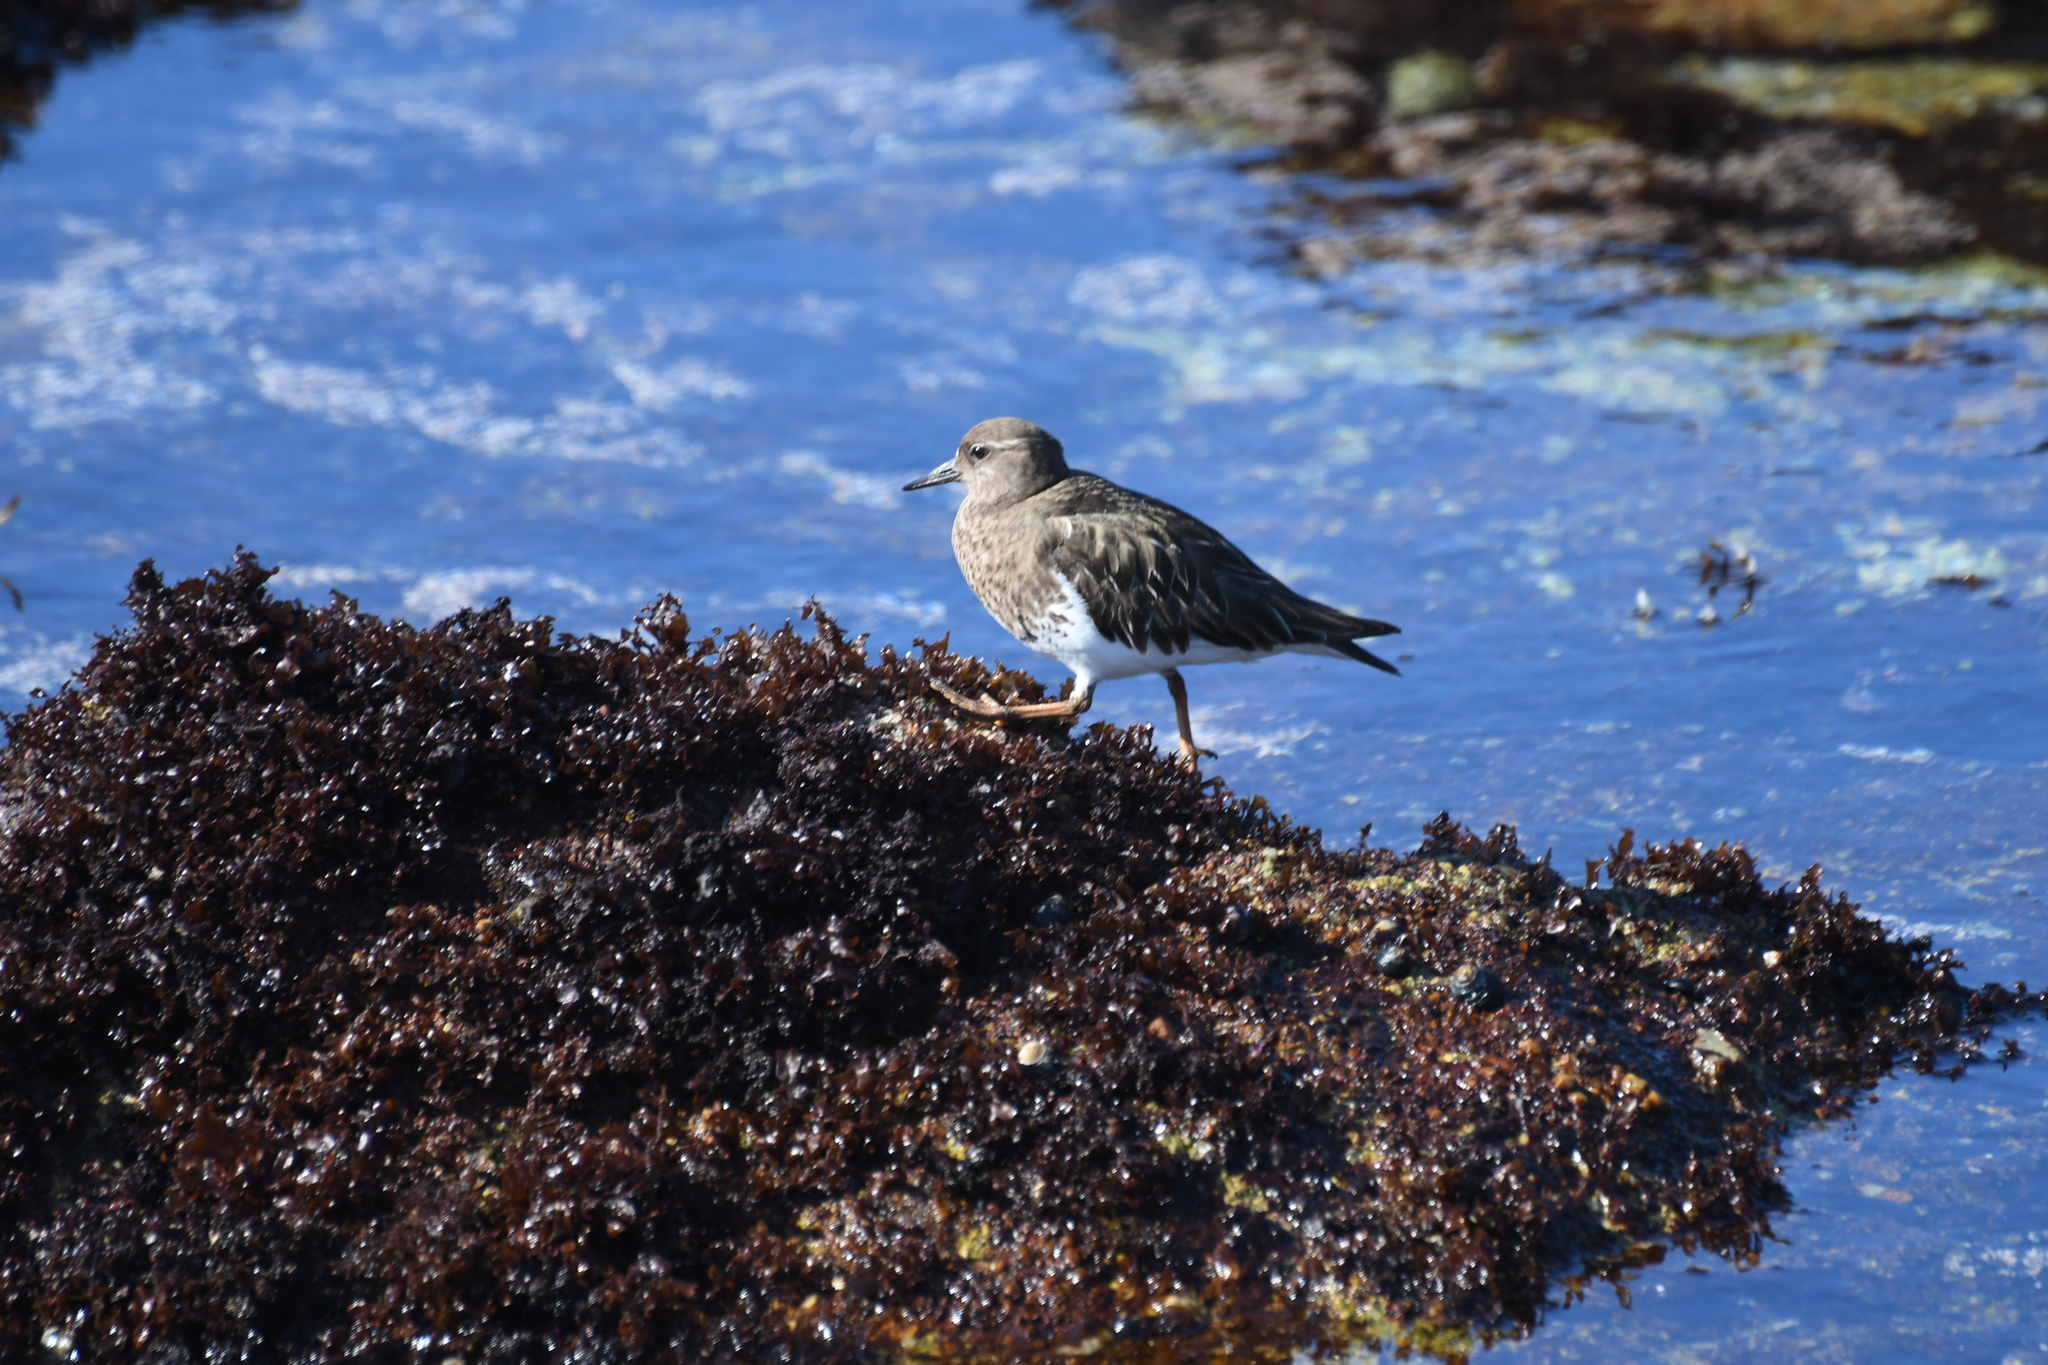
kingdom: Animalia
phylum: Chordata
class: Aves
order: Charadriiformes
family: Scolopacidae
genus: Arenaria
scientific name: Arenaria melanocephala
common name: Black turnstone
